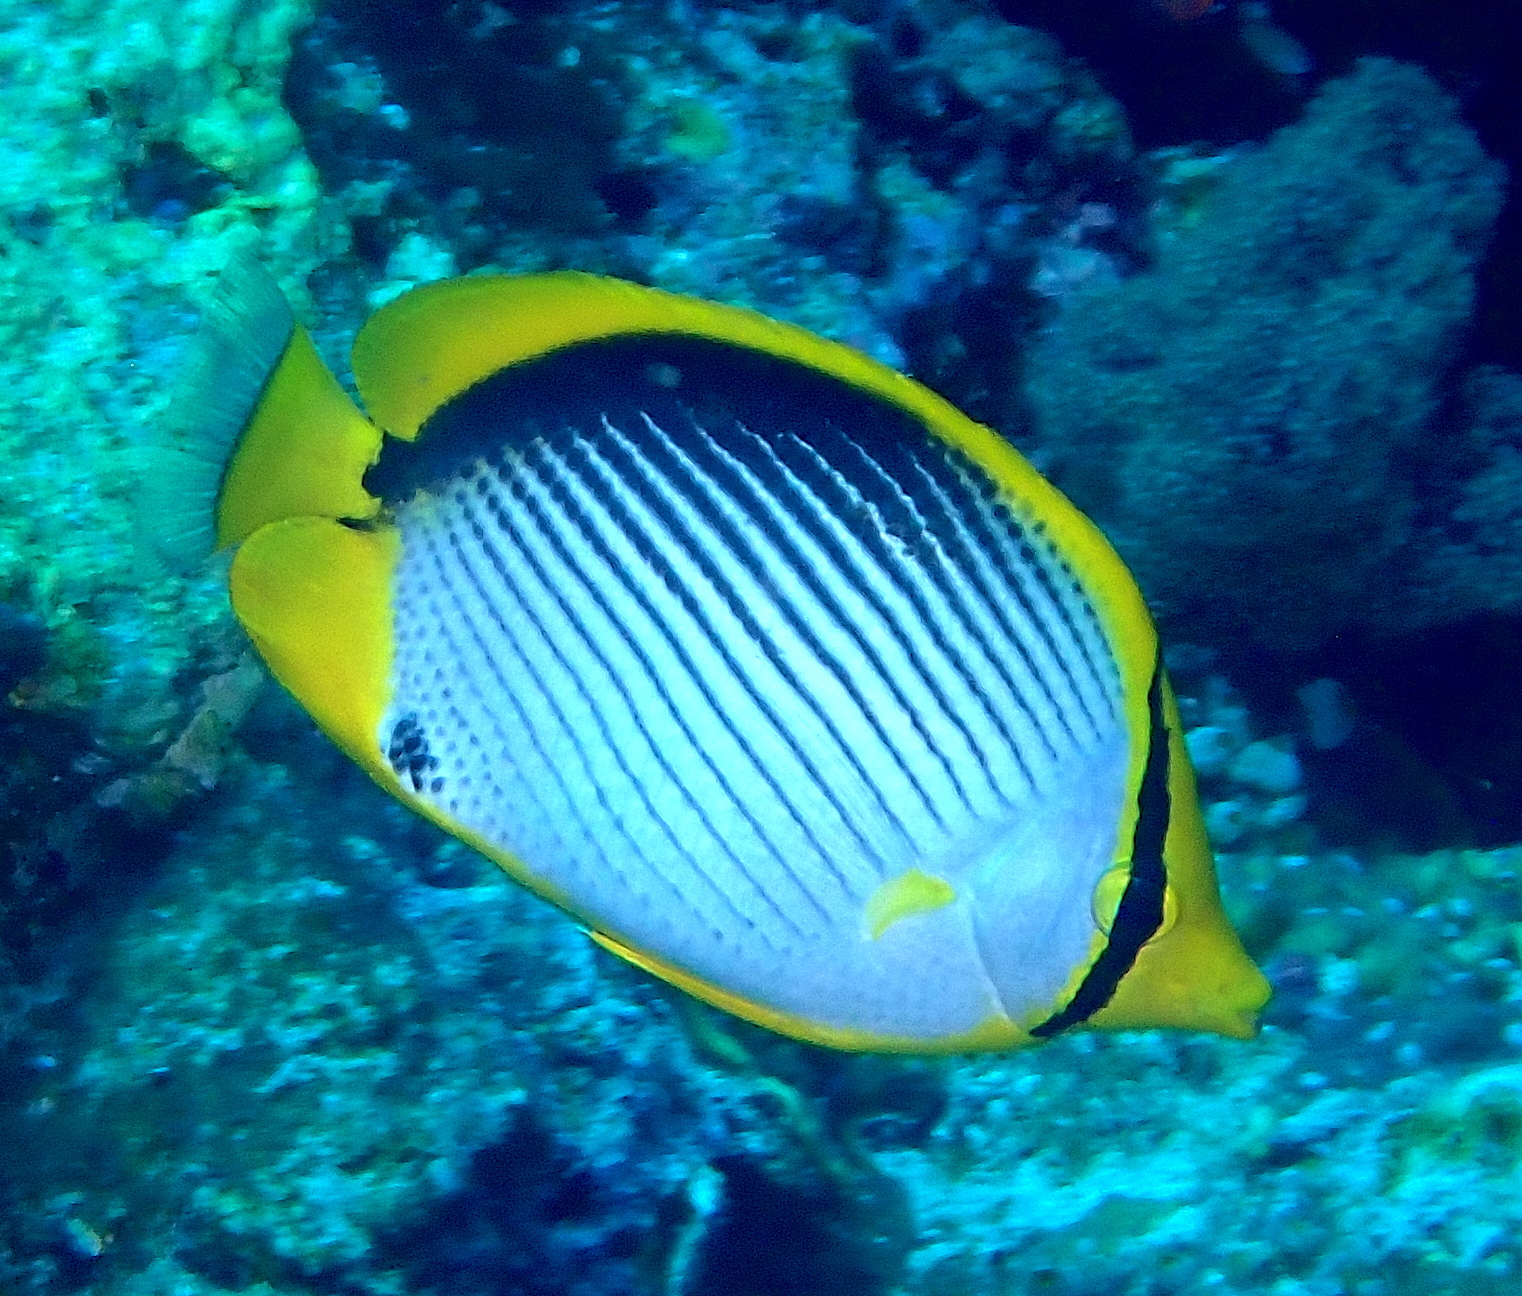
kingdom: Animalia
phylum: Chordata
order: Perciformes
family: Chaetodontidae
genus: Chaetodon
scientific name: Chaetodon melannotus
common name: Blackback butterflyfish
